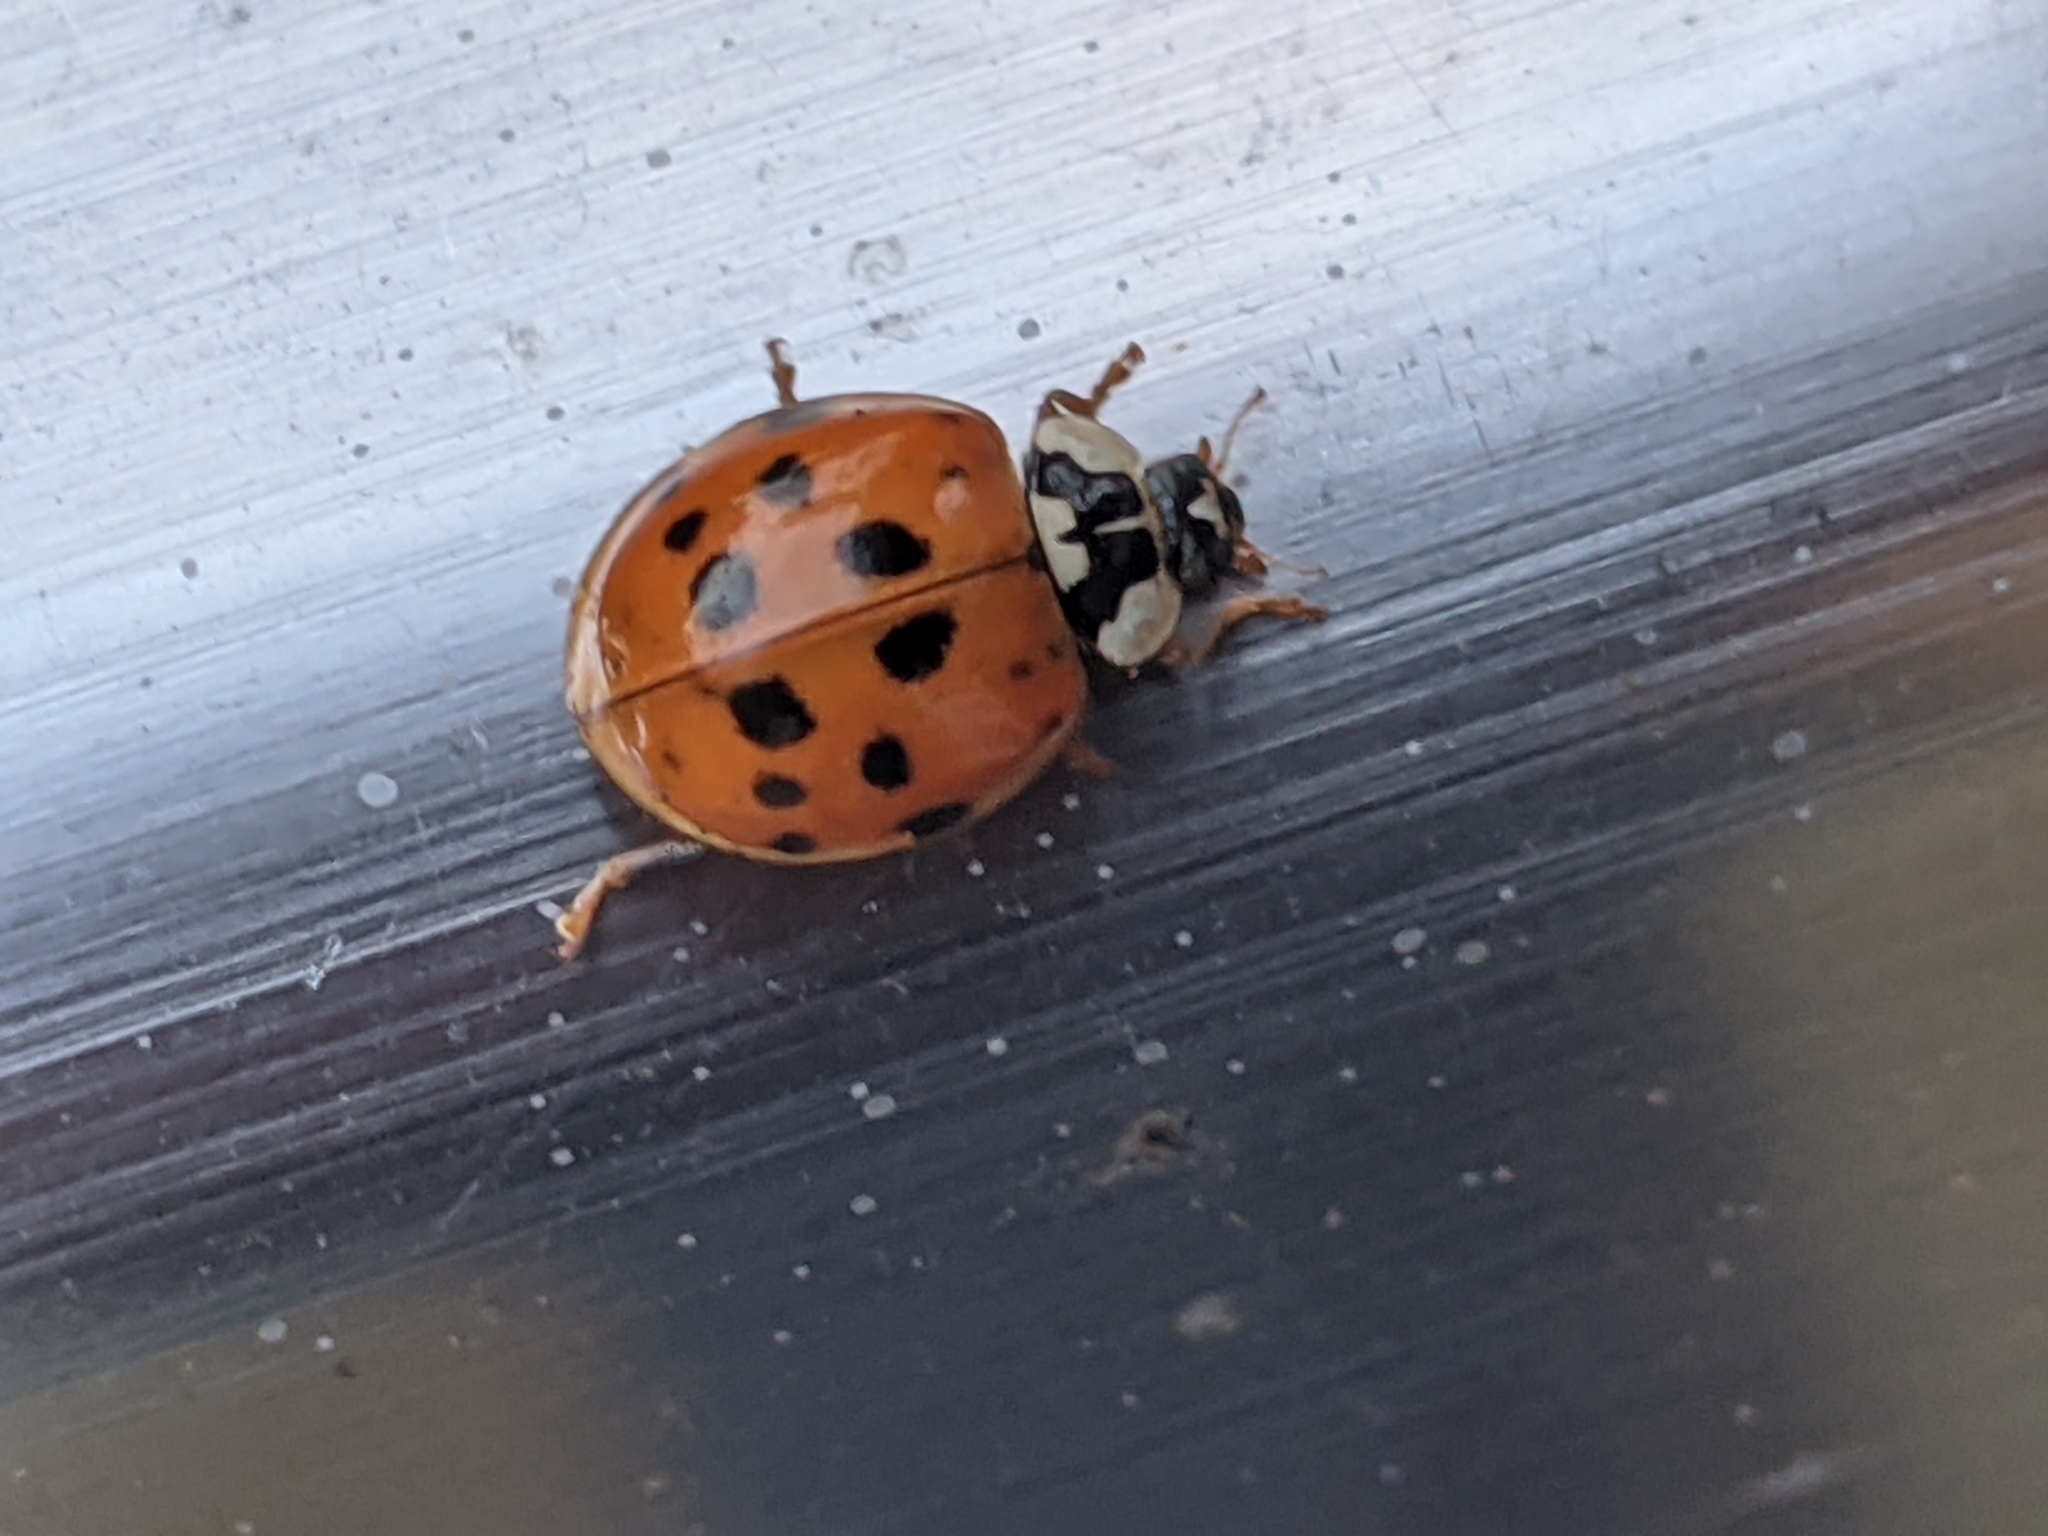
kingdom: Animalia
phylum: Arthropoda
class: Insecta
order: Coleoptera
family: Coccinellidae
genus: Harmonia
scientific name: Harmonia axyridis
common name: Harlequin ladybird
